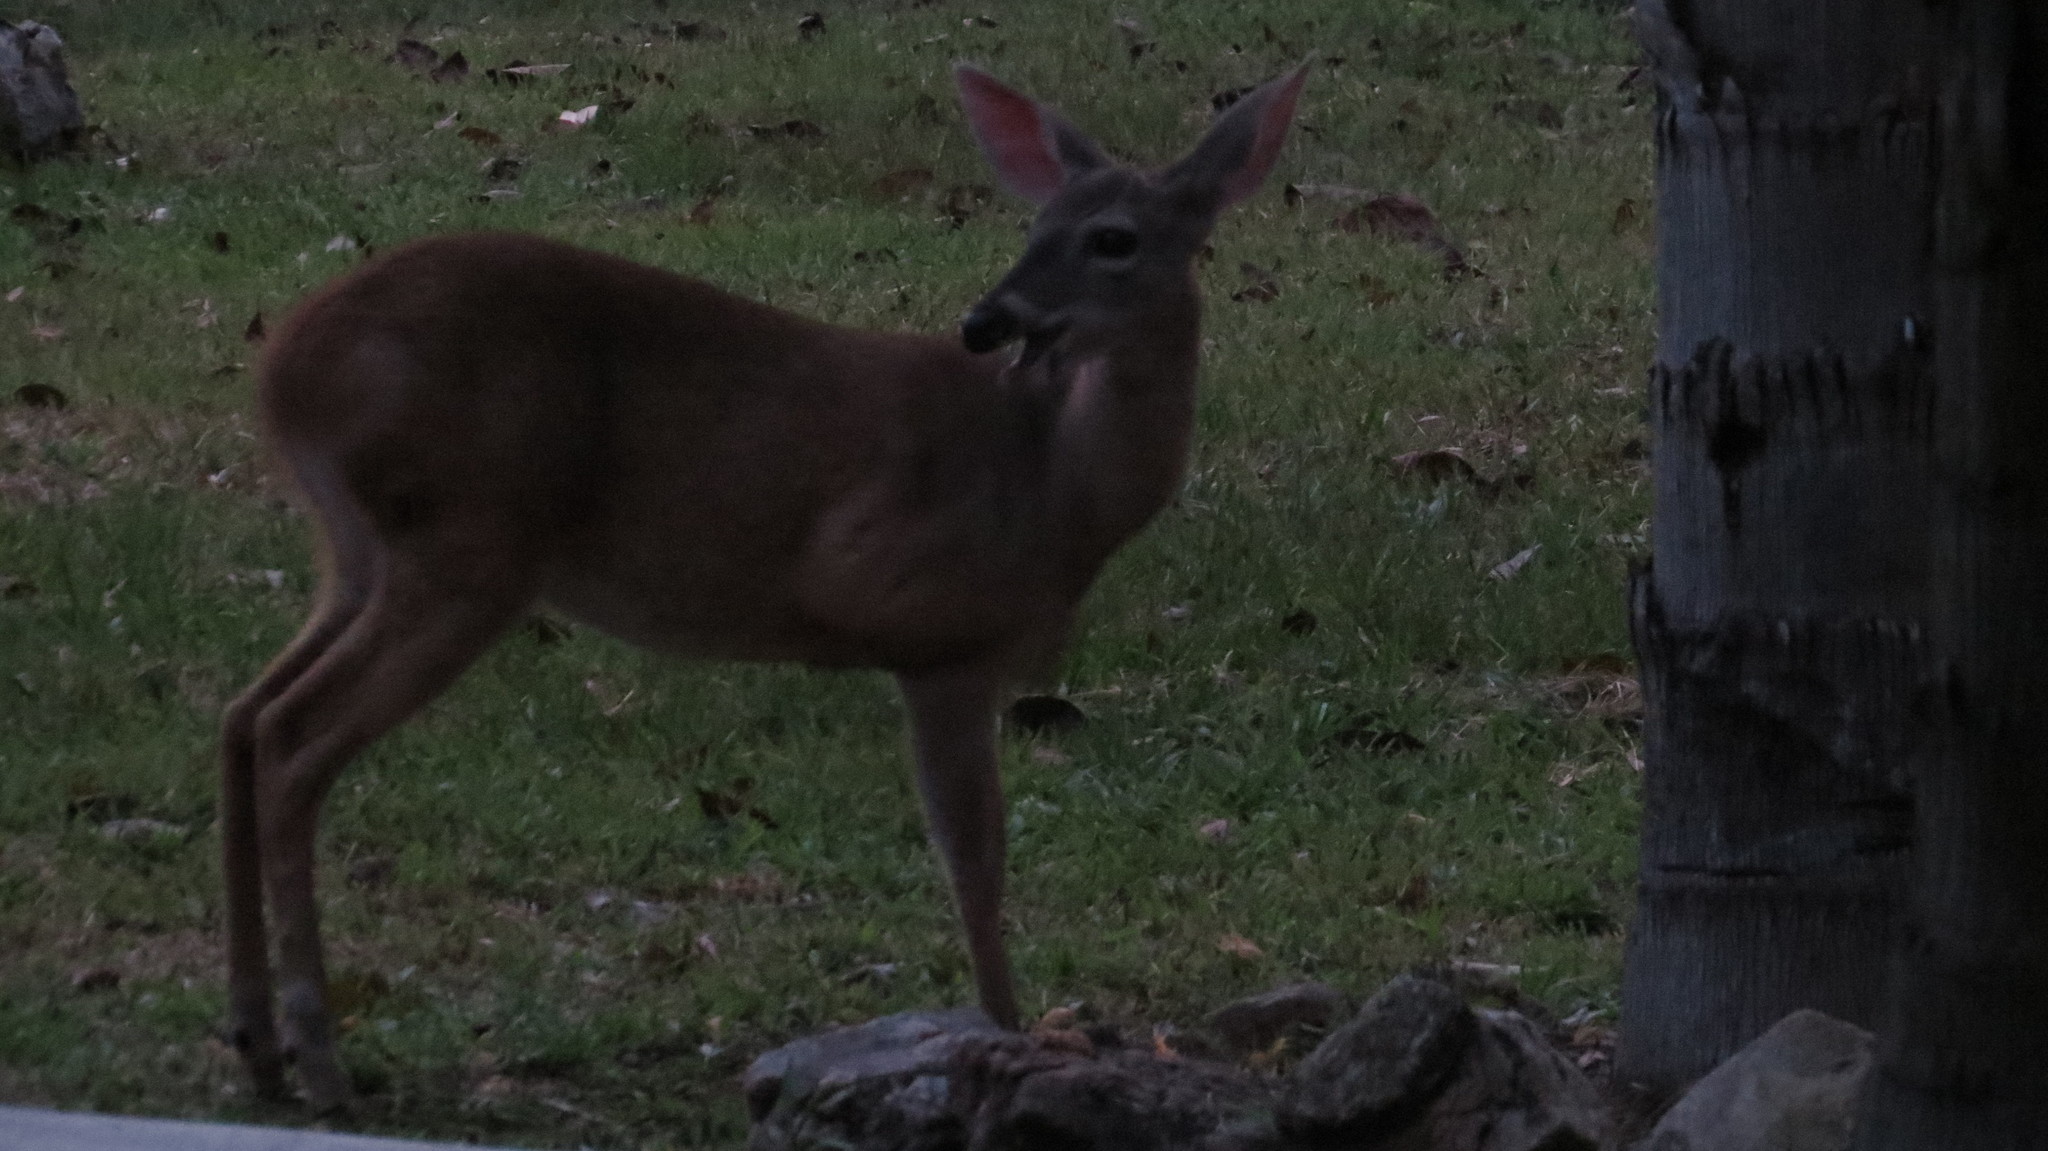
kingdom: Animalia
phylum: Chordata
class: Mammalia
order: Artiodactyla
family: Cervidae
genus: Odocoileus
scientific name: Odocoileus virginianus
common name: White-tailed deer
